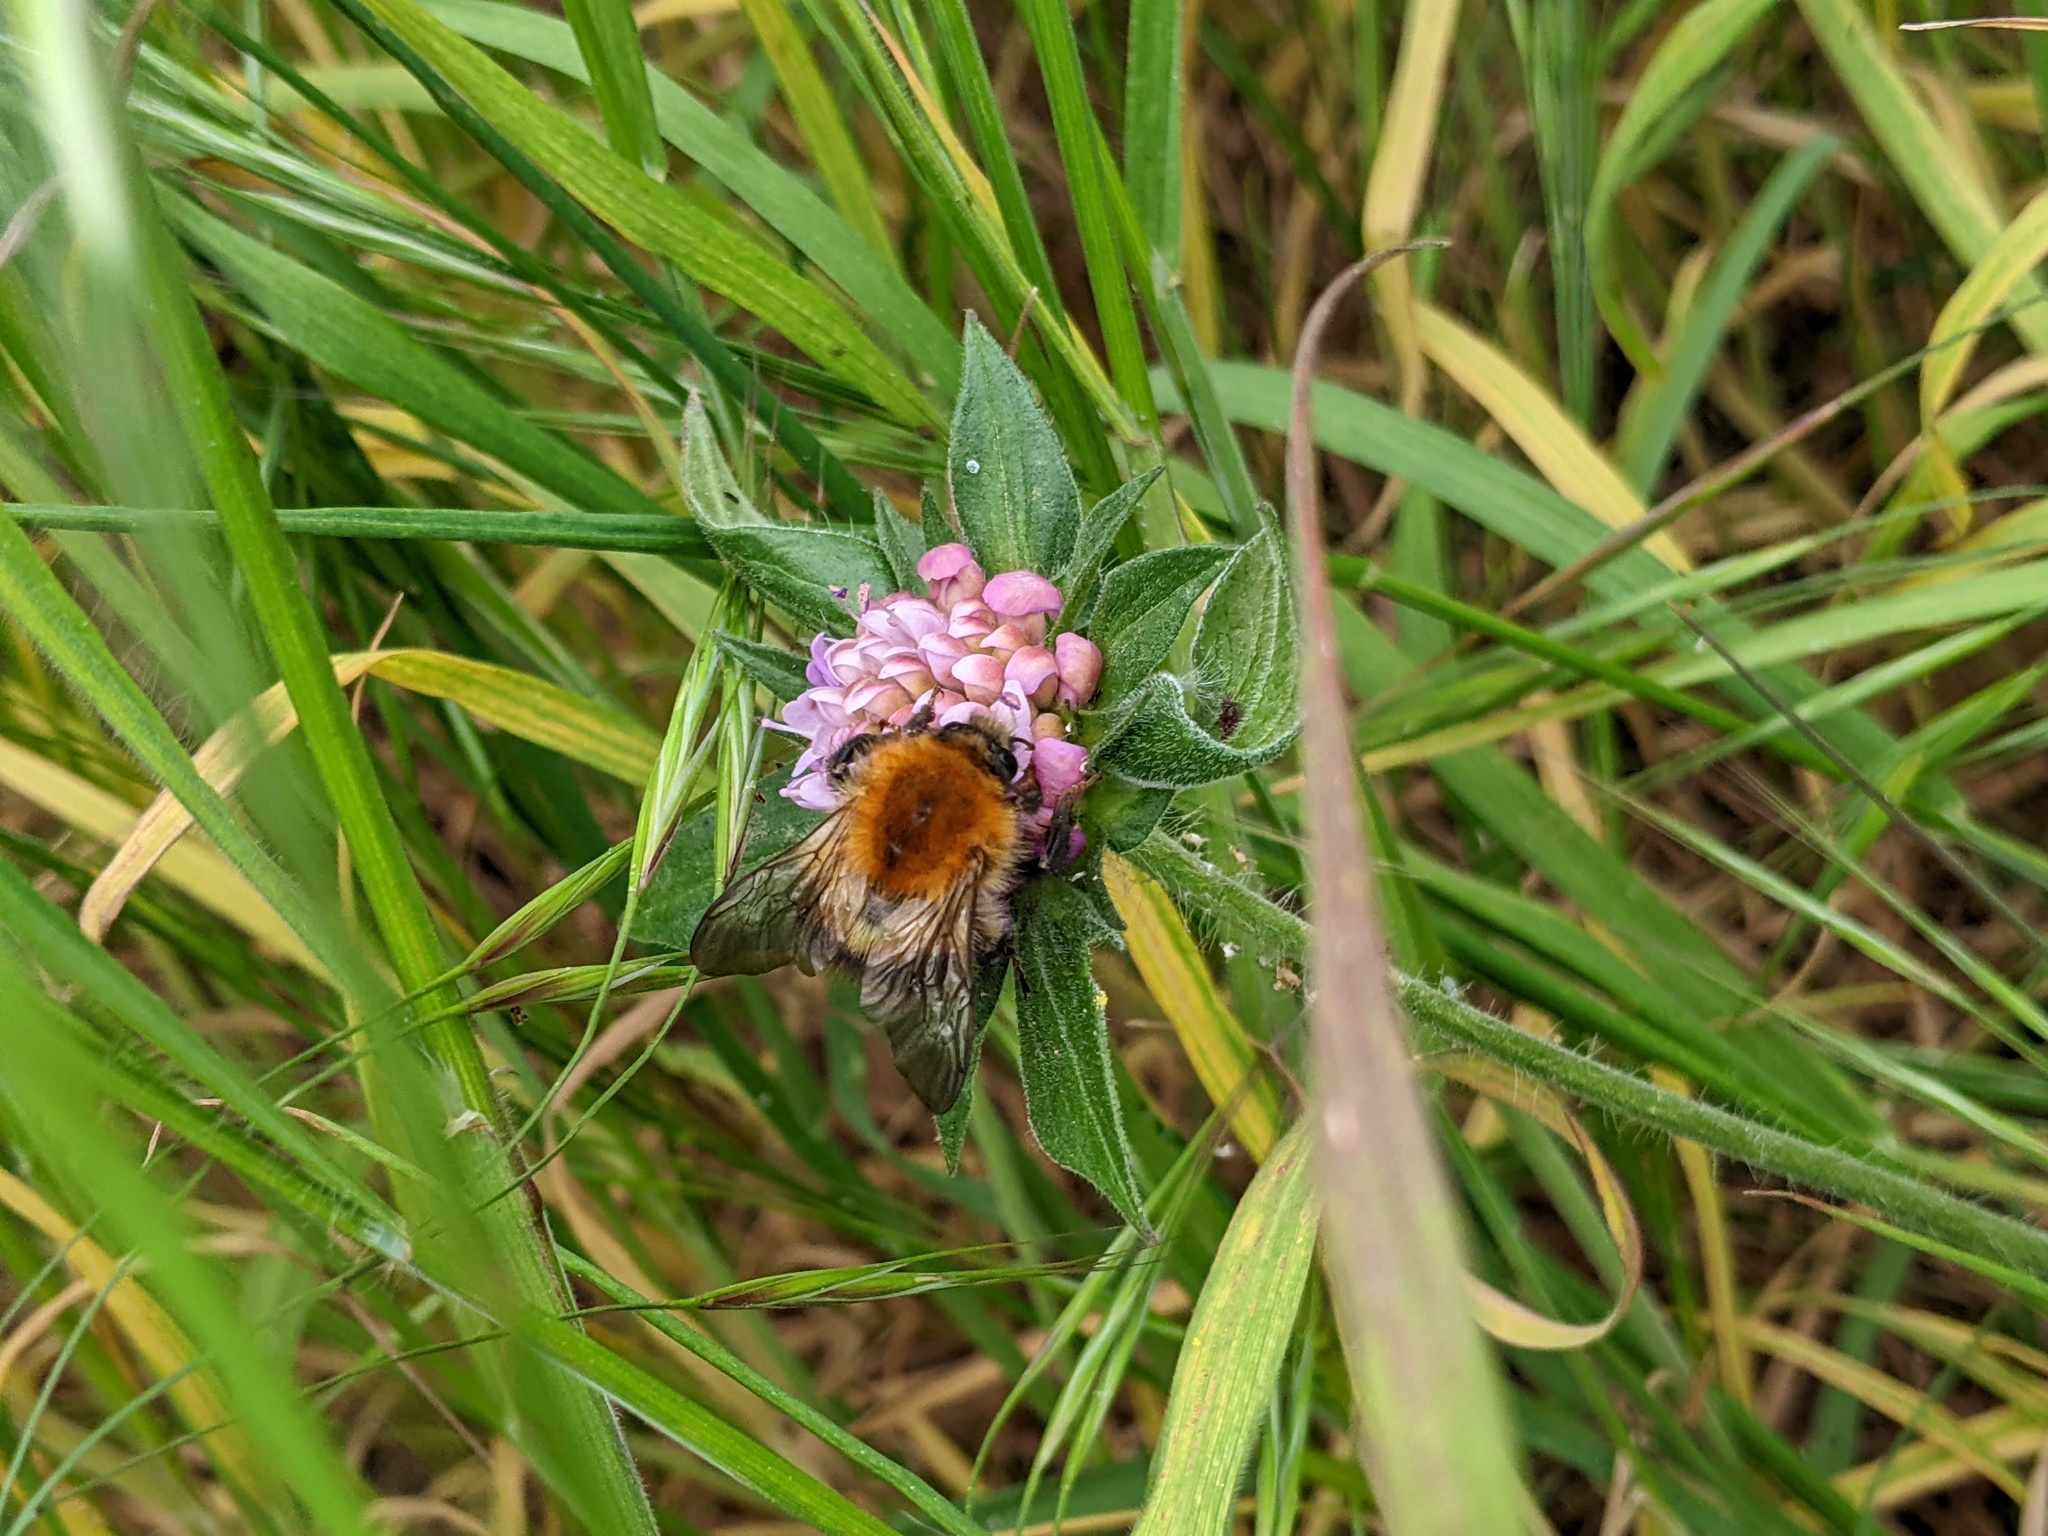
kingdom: Animalia
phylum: Arthropoda
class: Insecta
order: Hymenoptera
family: Apidae
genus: Bombus
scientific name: Bombus pascuorum
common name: Common carder bee
